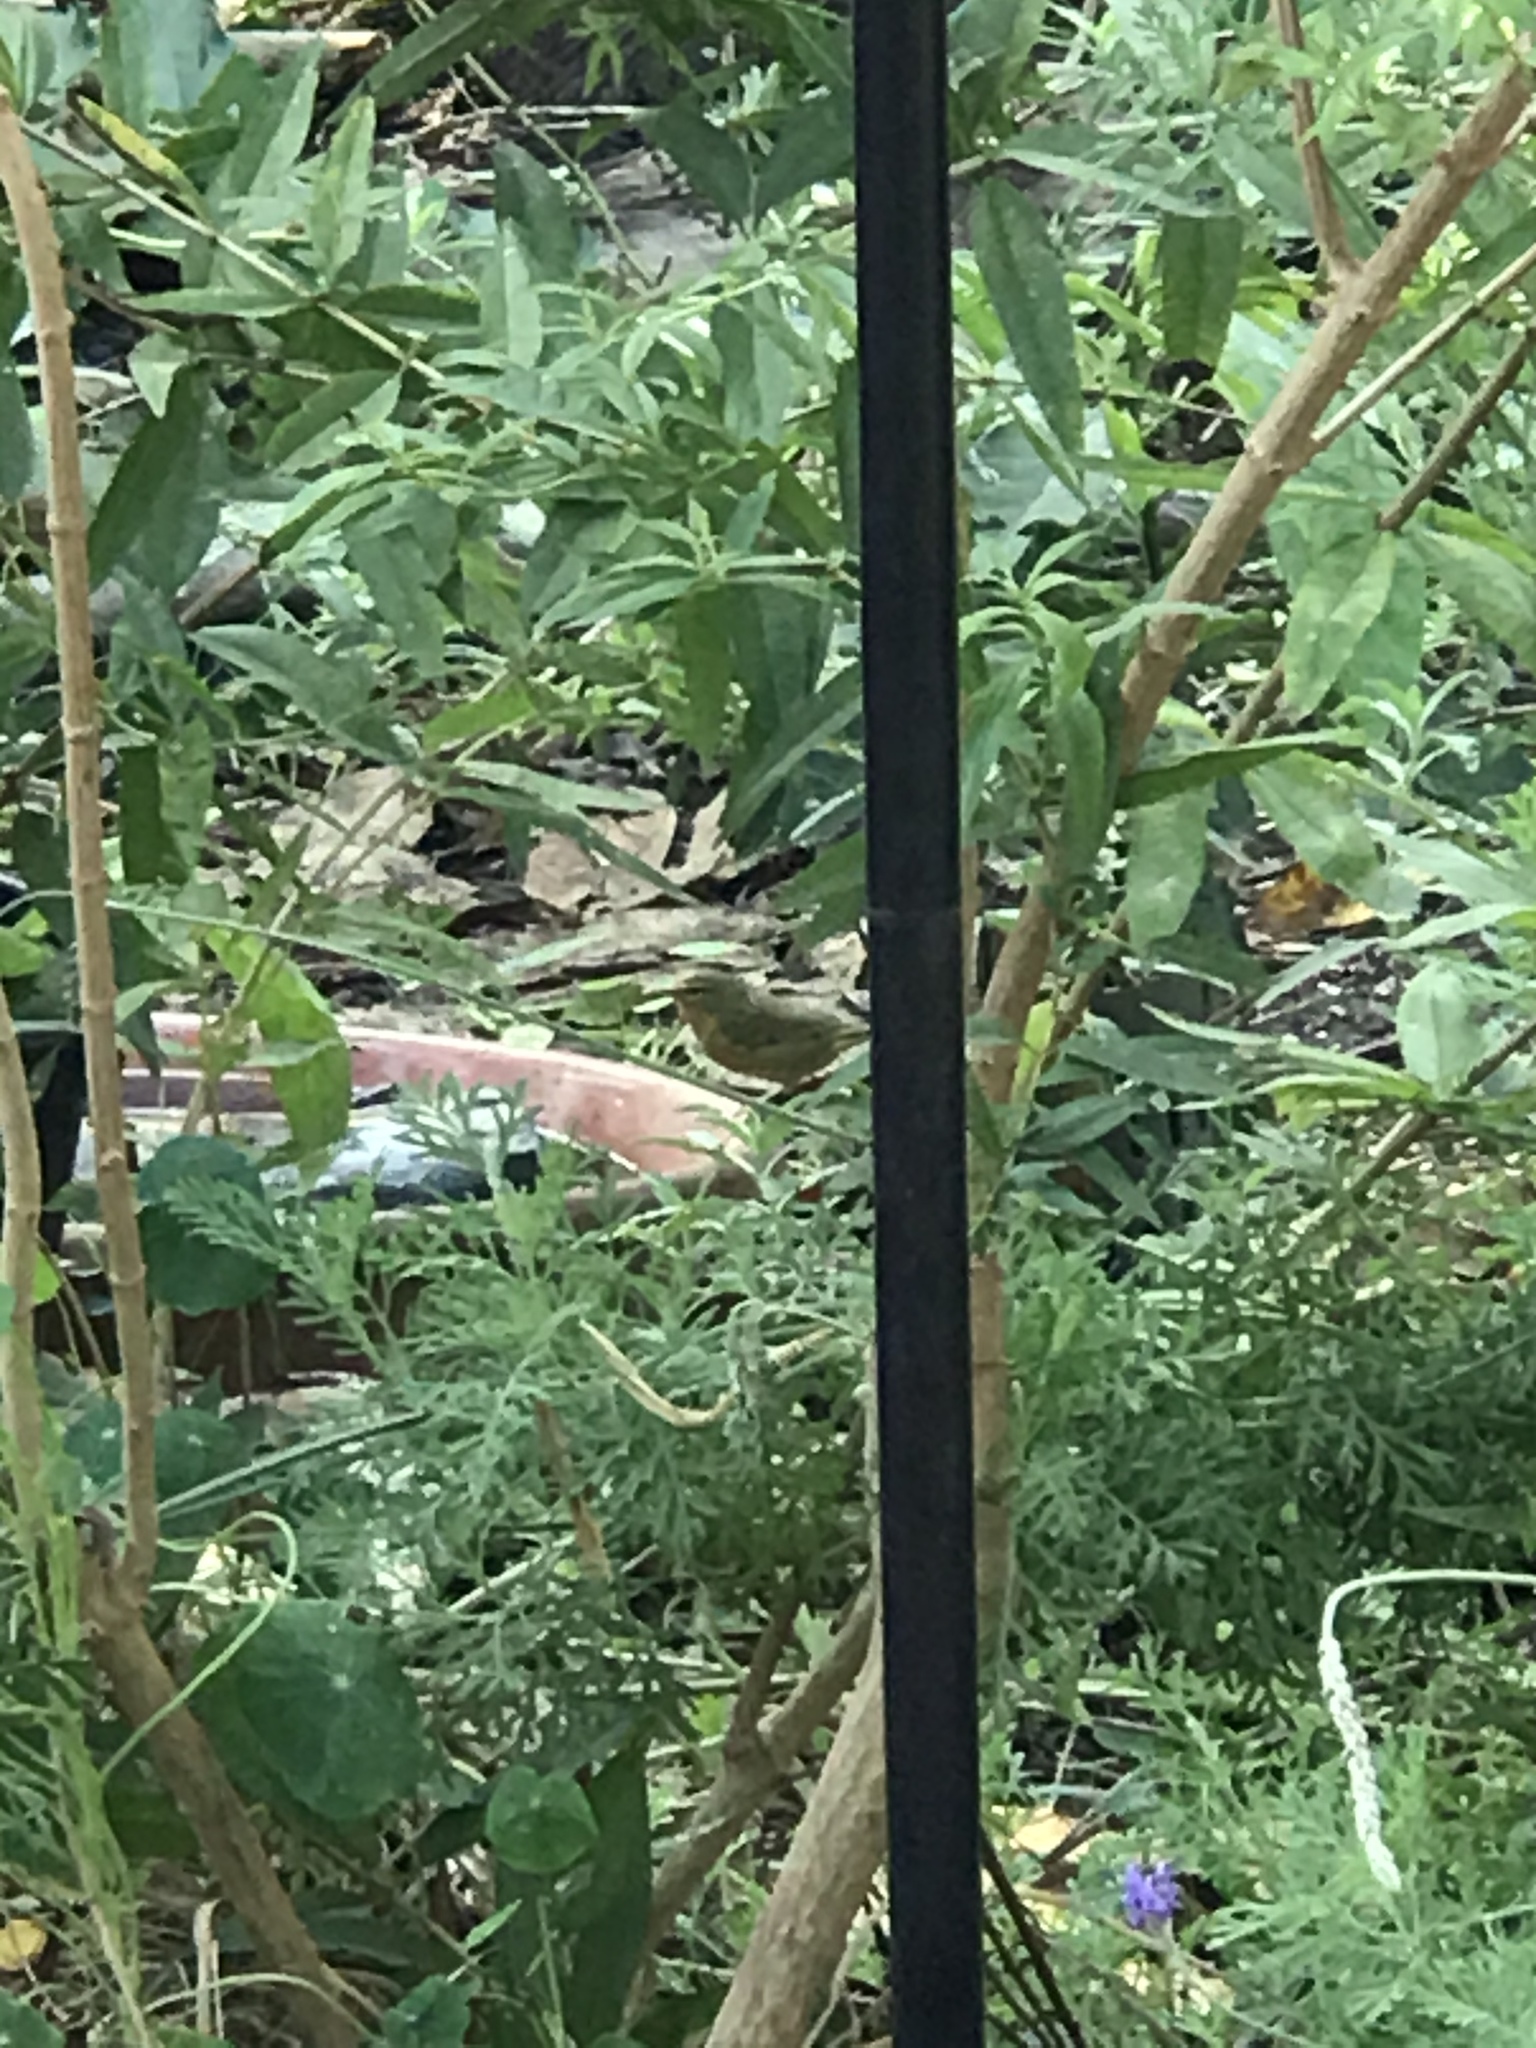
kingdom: Animalia
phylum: Chordata
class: Aves
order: Passeriformes
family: Parulidae
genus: Leiothlypis
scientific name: Leiothlypis celata
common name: Orange-crowned warbler
